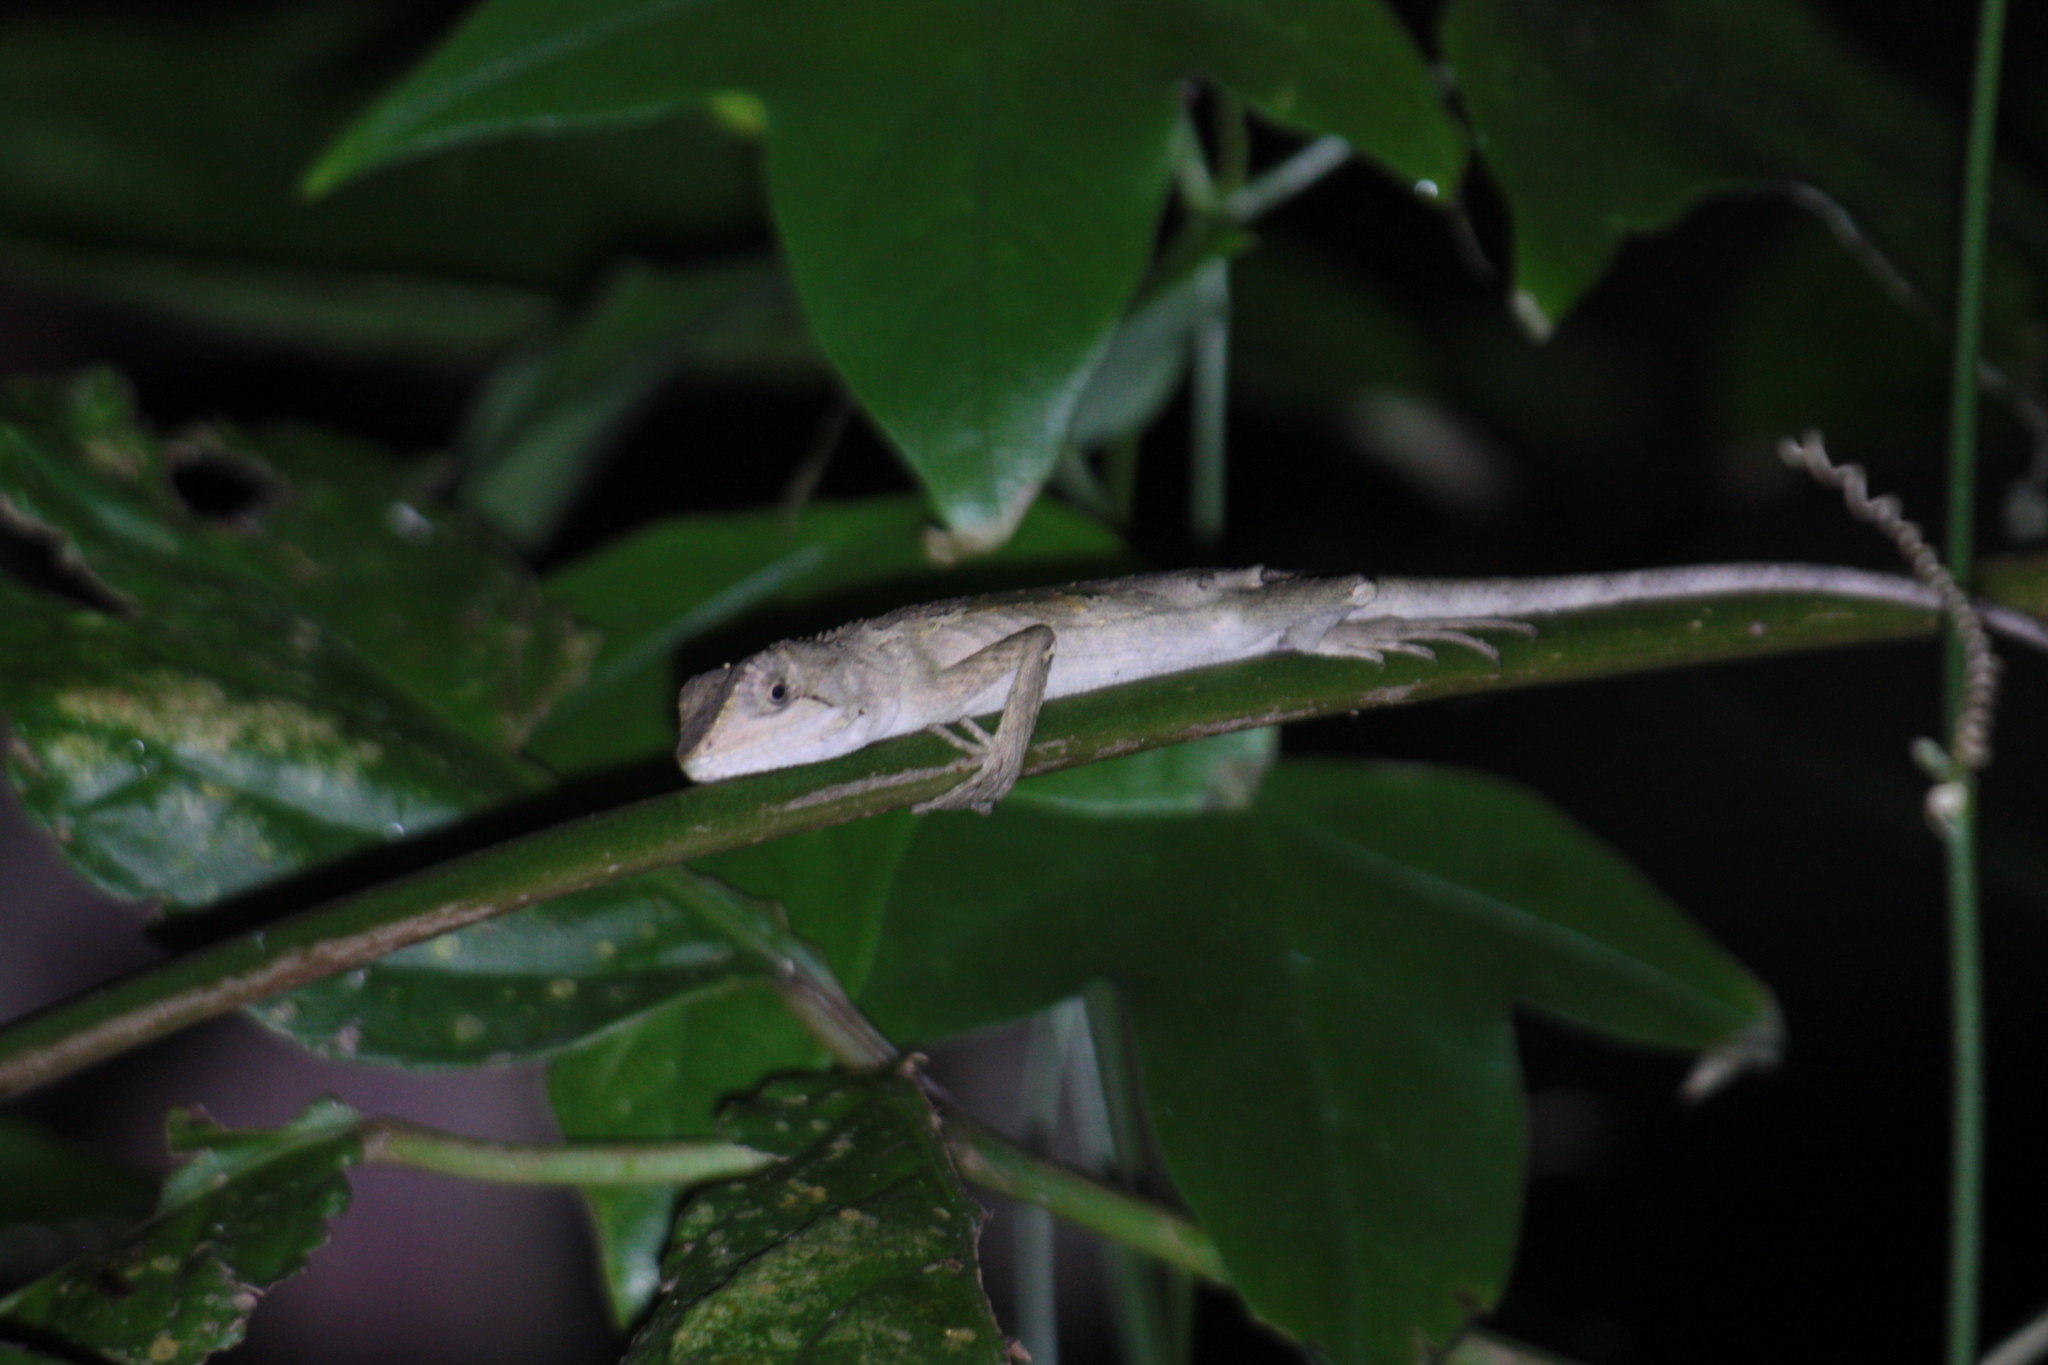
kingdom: Animalia
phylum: Chordata
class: Squamata
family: Agamidae
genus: Diploderma
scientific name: Diploderma swinhonis
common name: Taiwan japalure
